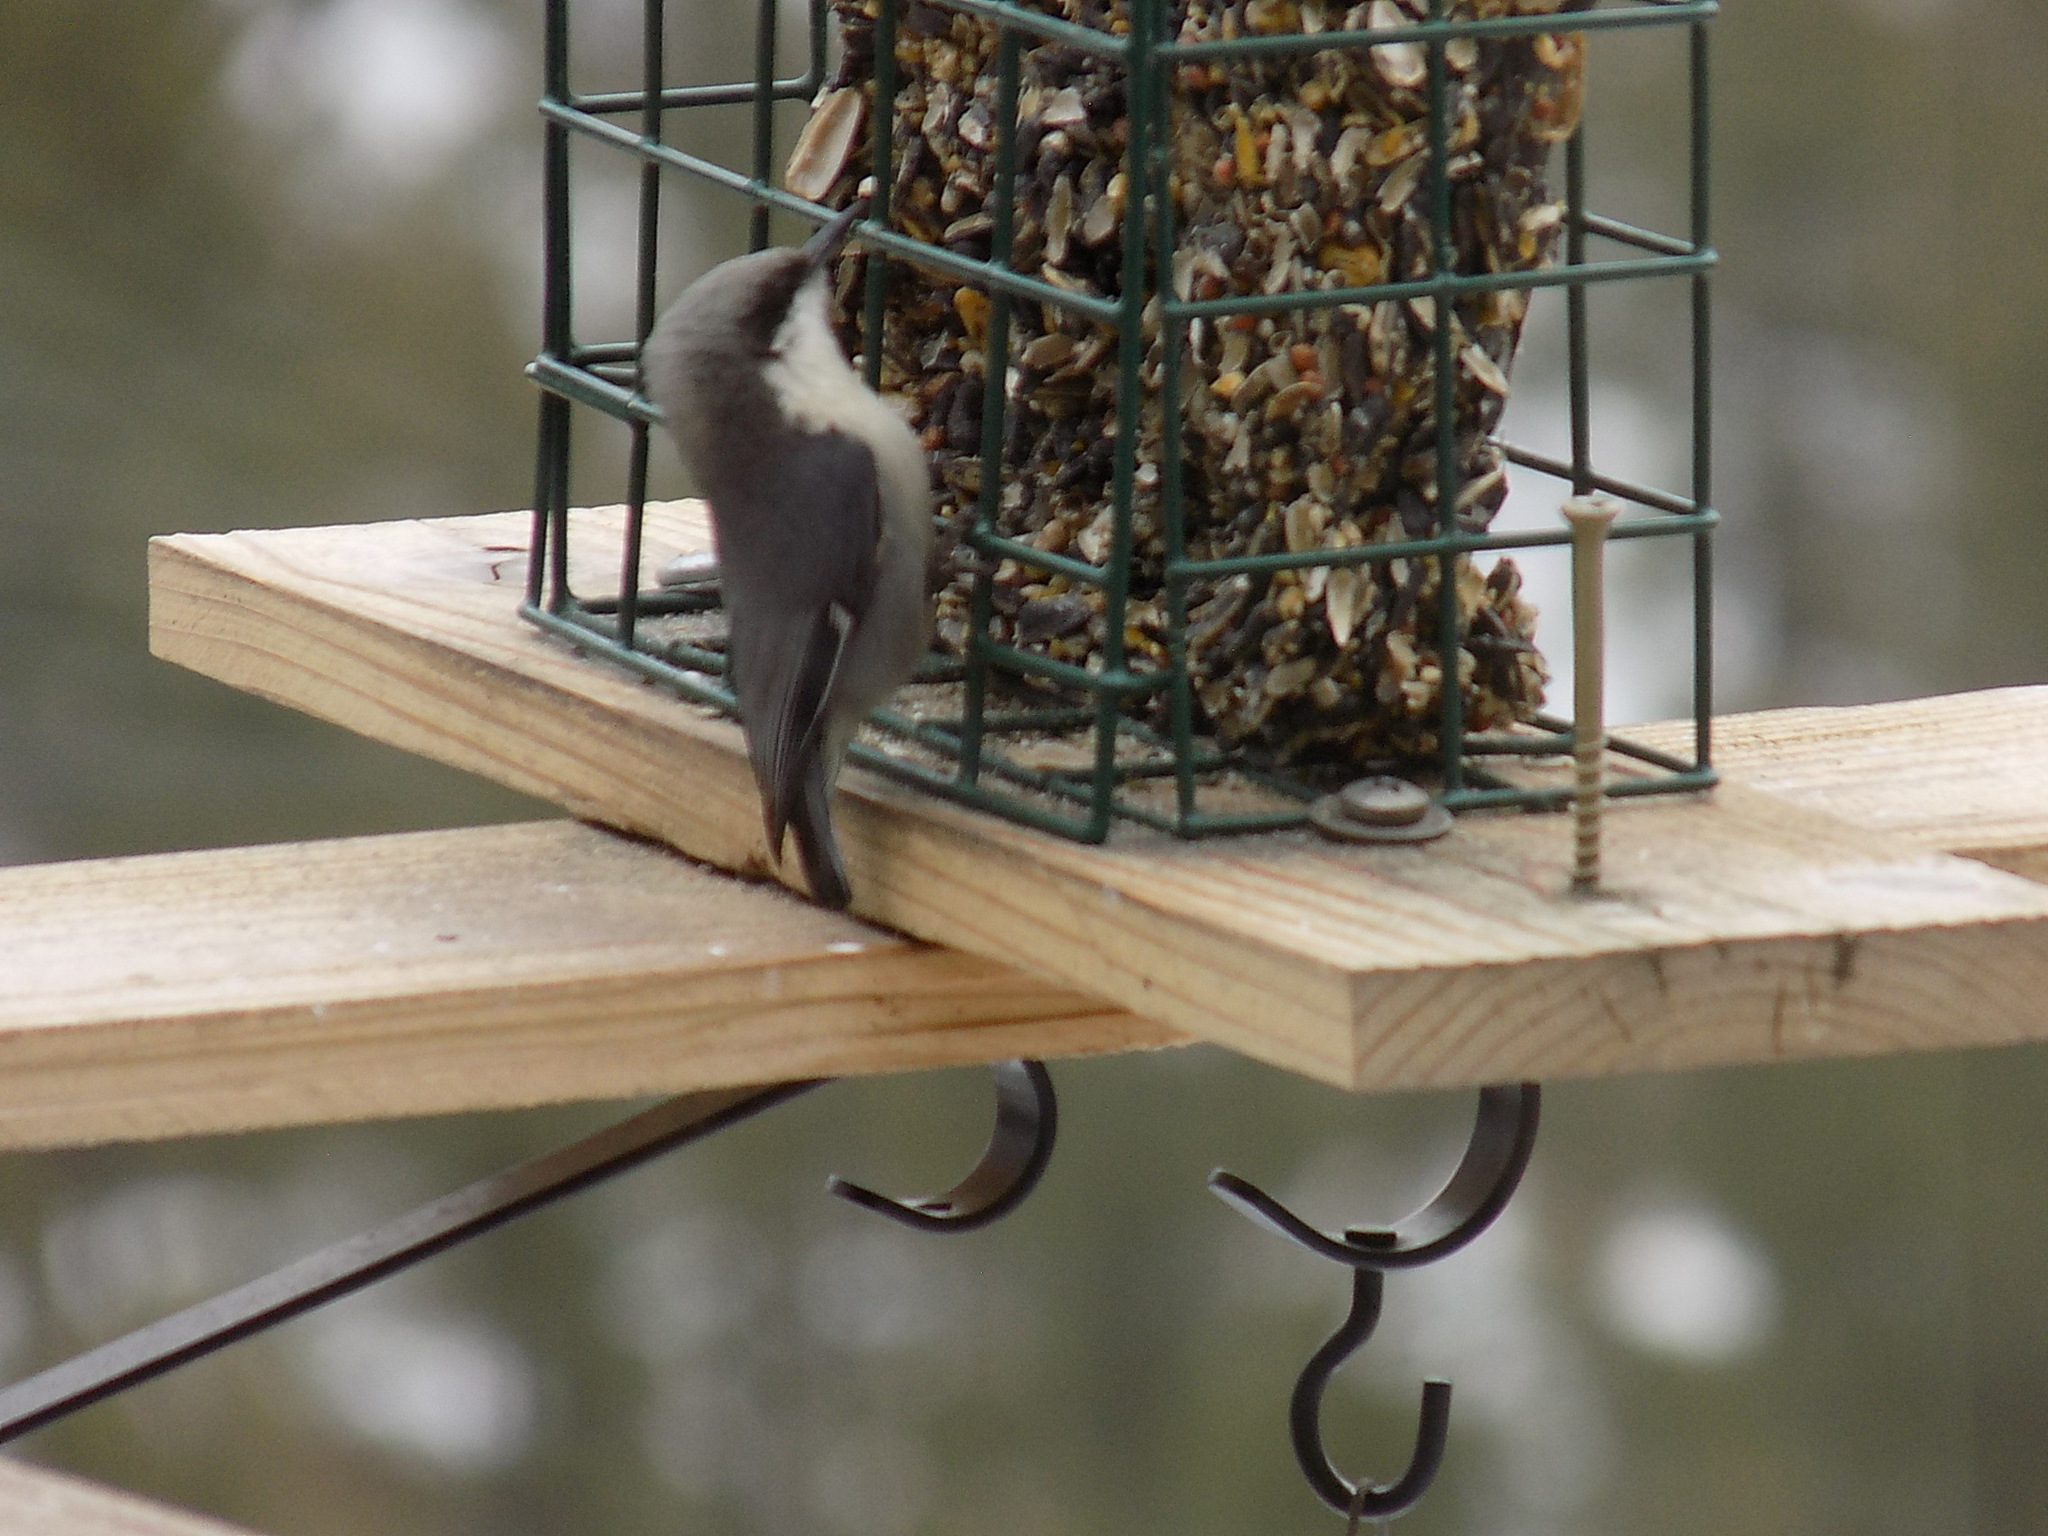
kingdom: Animalia
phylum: Chordata
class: Aves
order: Passeriformes
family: Sittidae
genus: Sitta
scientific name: Sitta pygmaea
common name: Pygmy nuthatch
